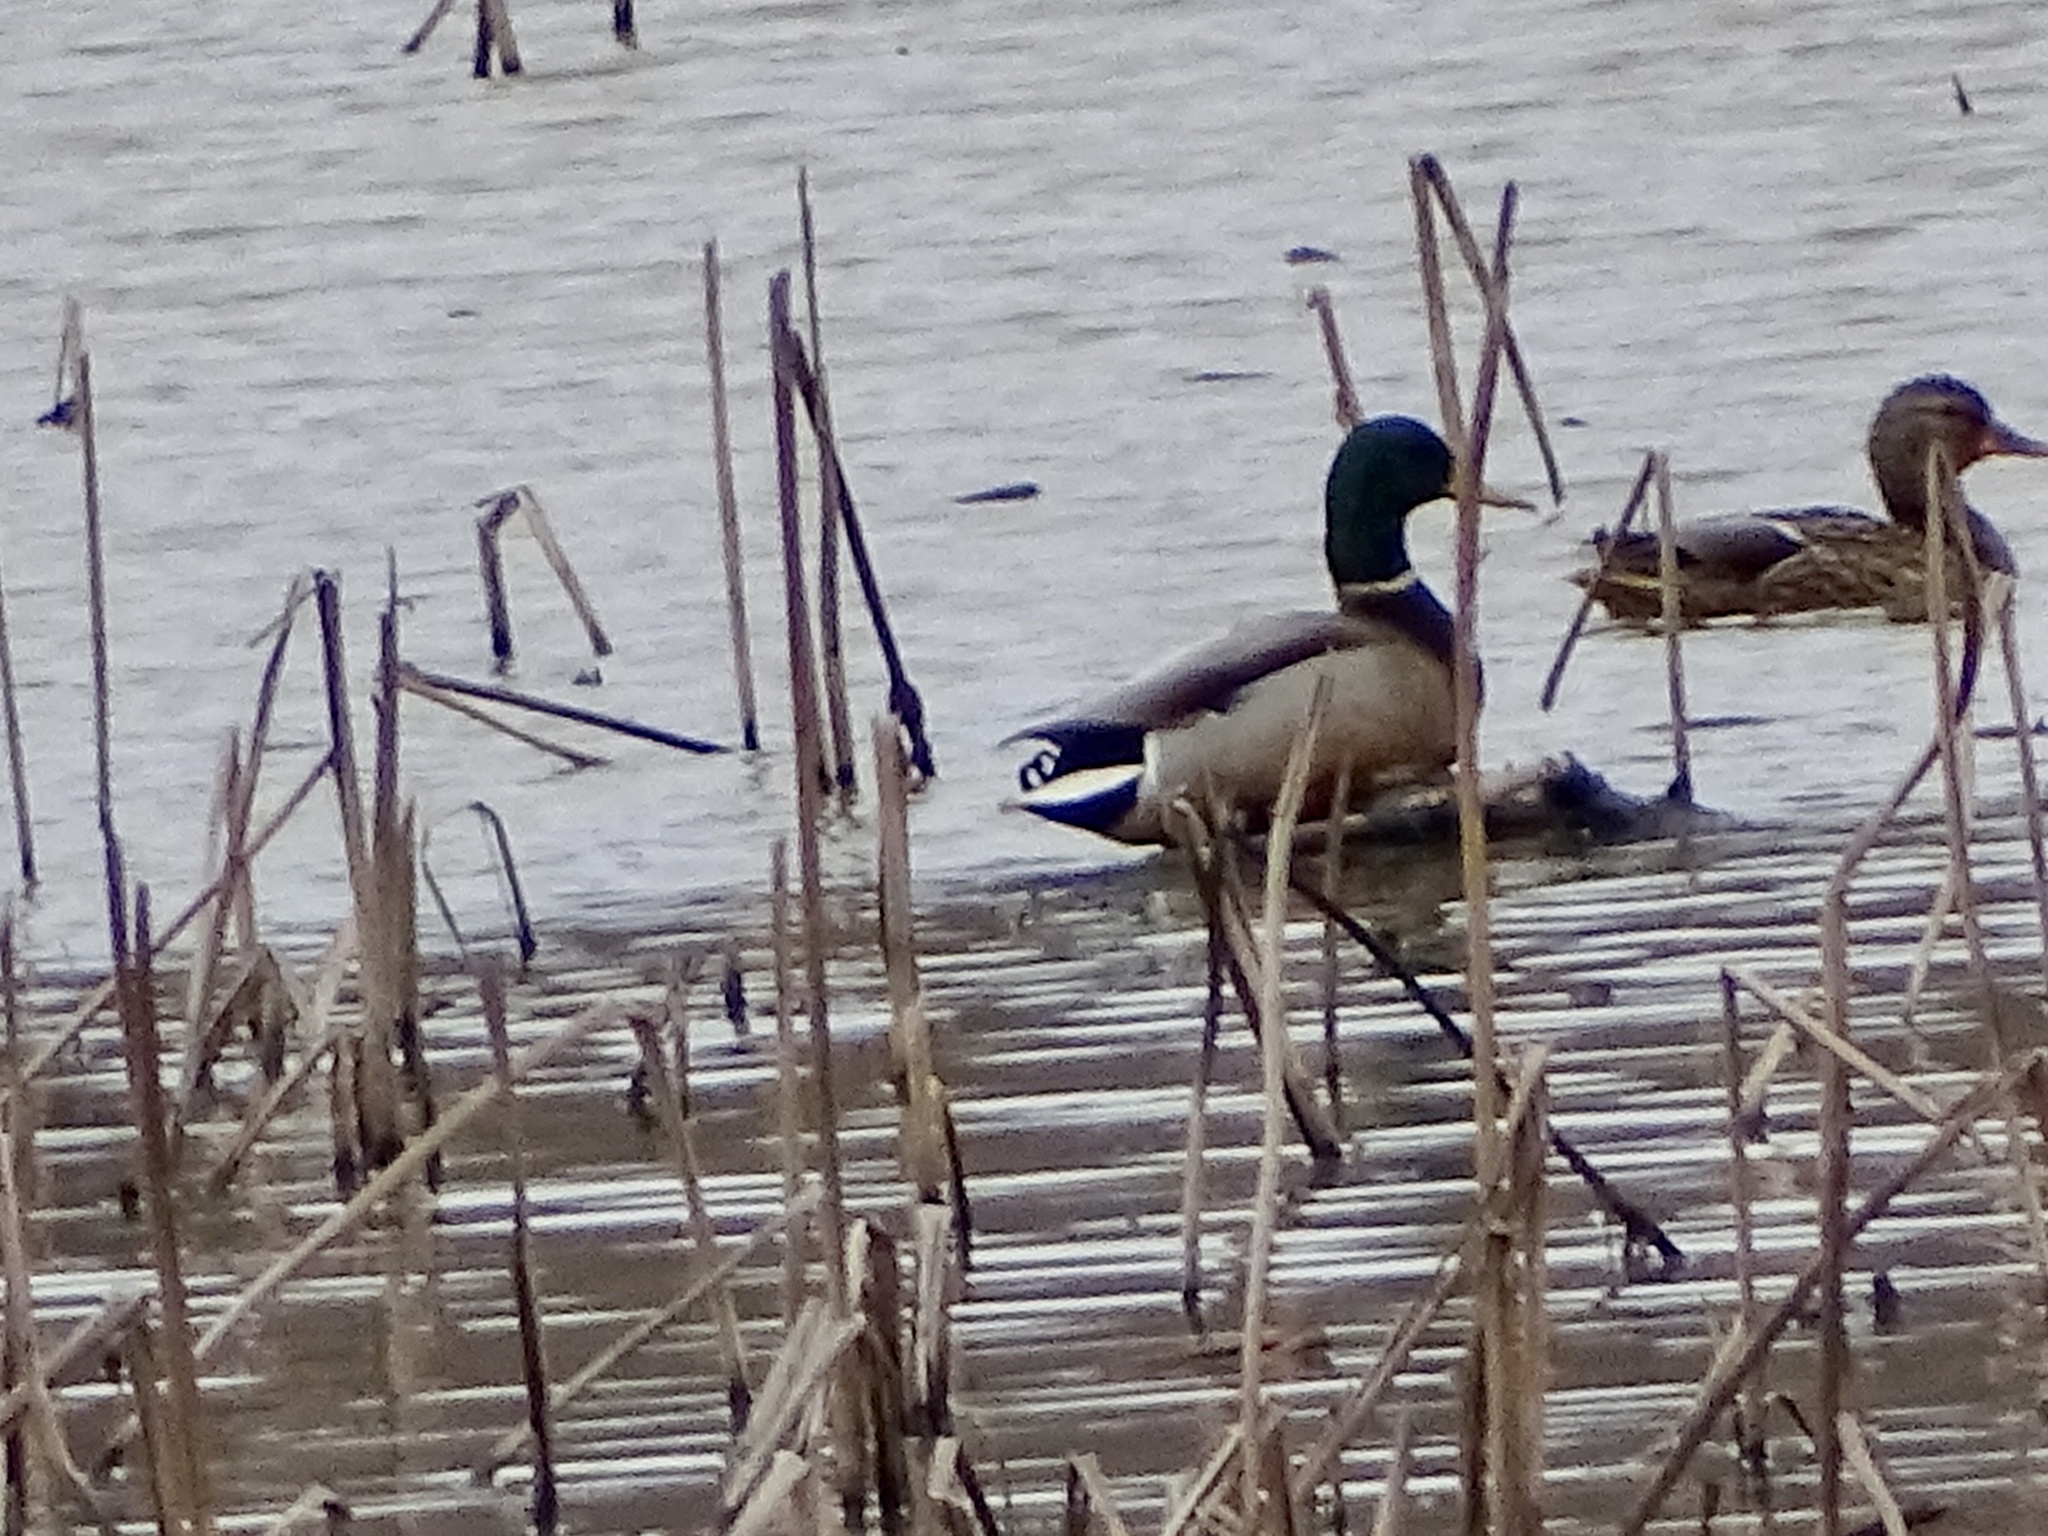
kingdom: Animalia
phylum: Chordata
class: Aves
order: Anseriformes
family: Anatidae
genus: Anas
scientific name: Anas platyrhynchos
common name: Mallard
